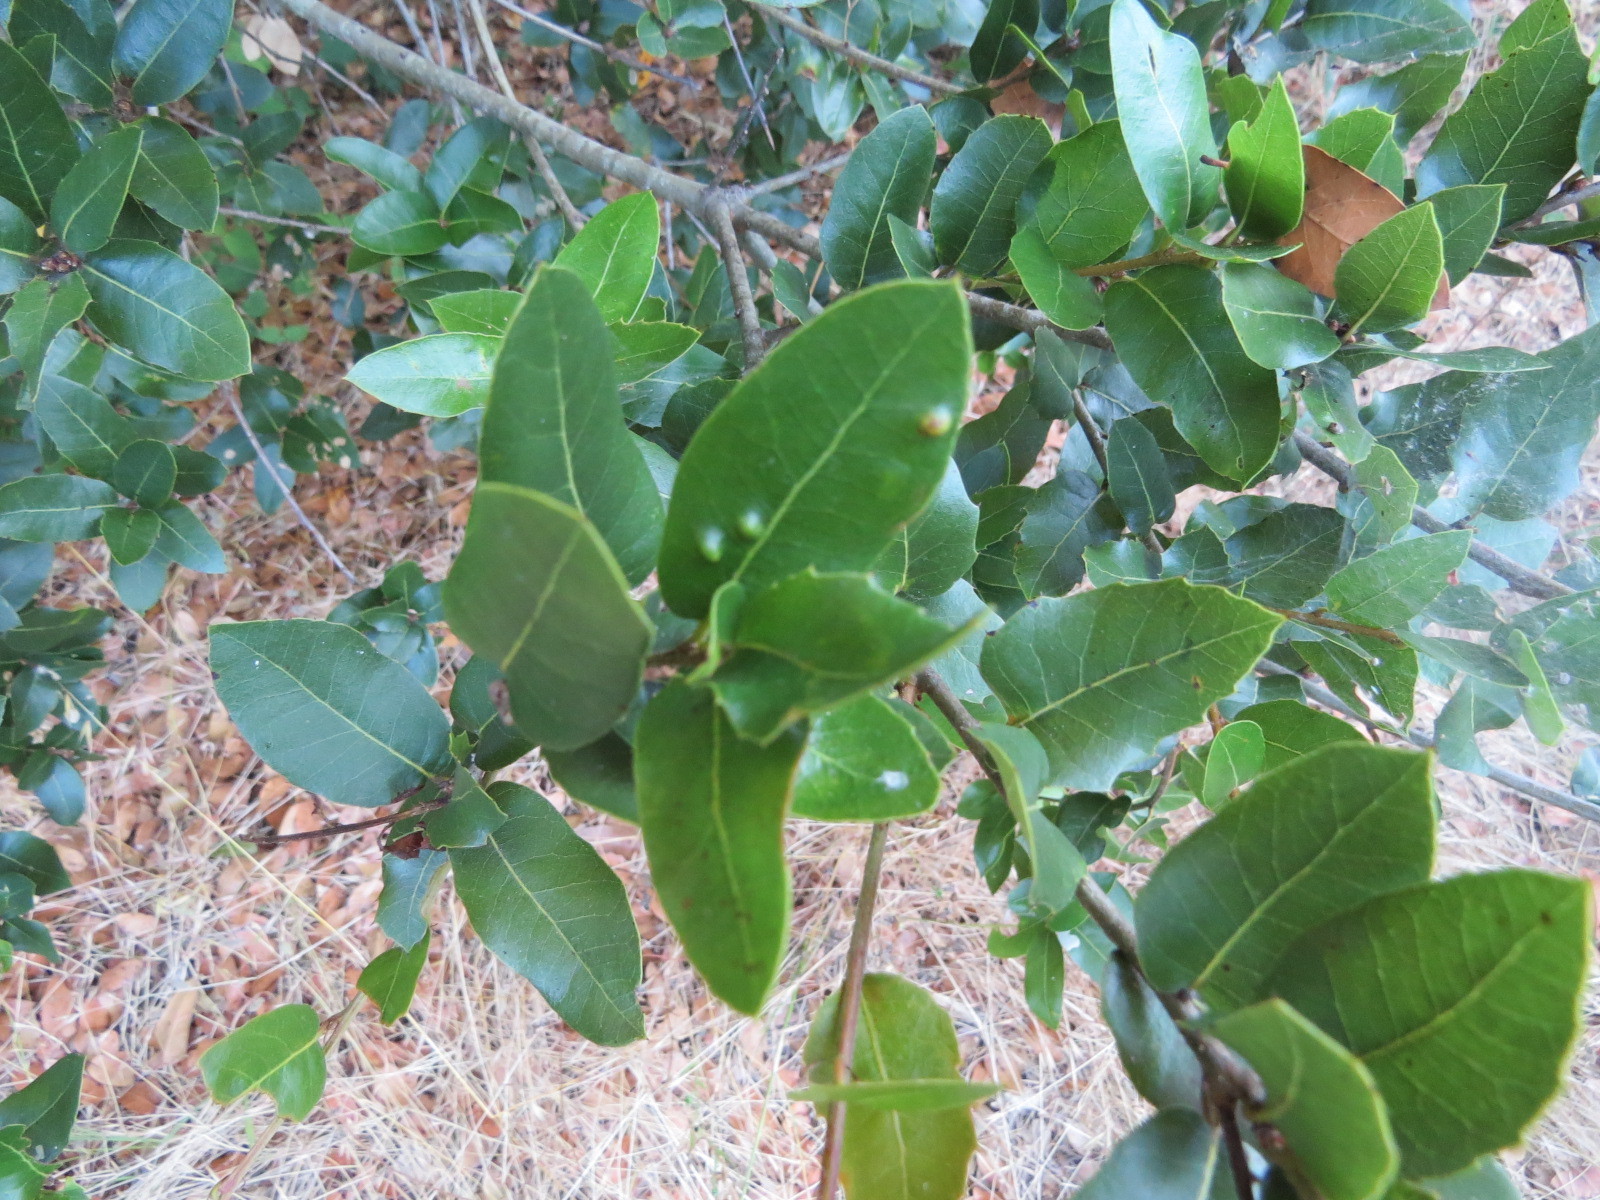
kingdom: Animalia
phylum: Arthropoda
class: Arachnida
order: Trombidiformes
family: Eriophyidae
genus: Aceria
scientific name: Aceria
